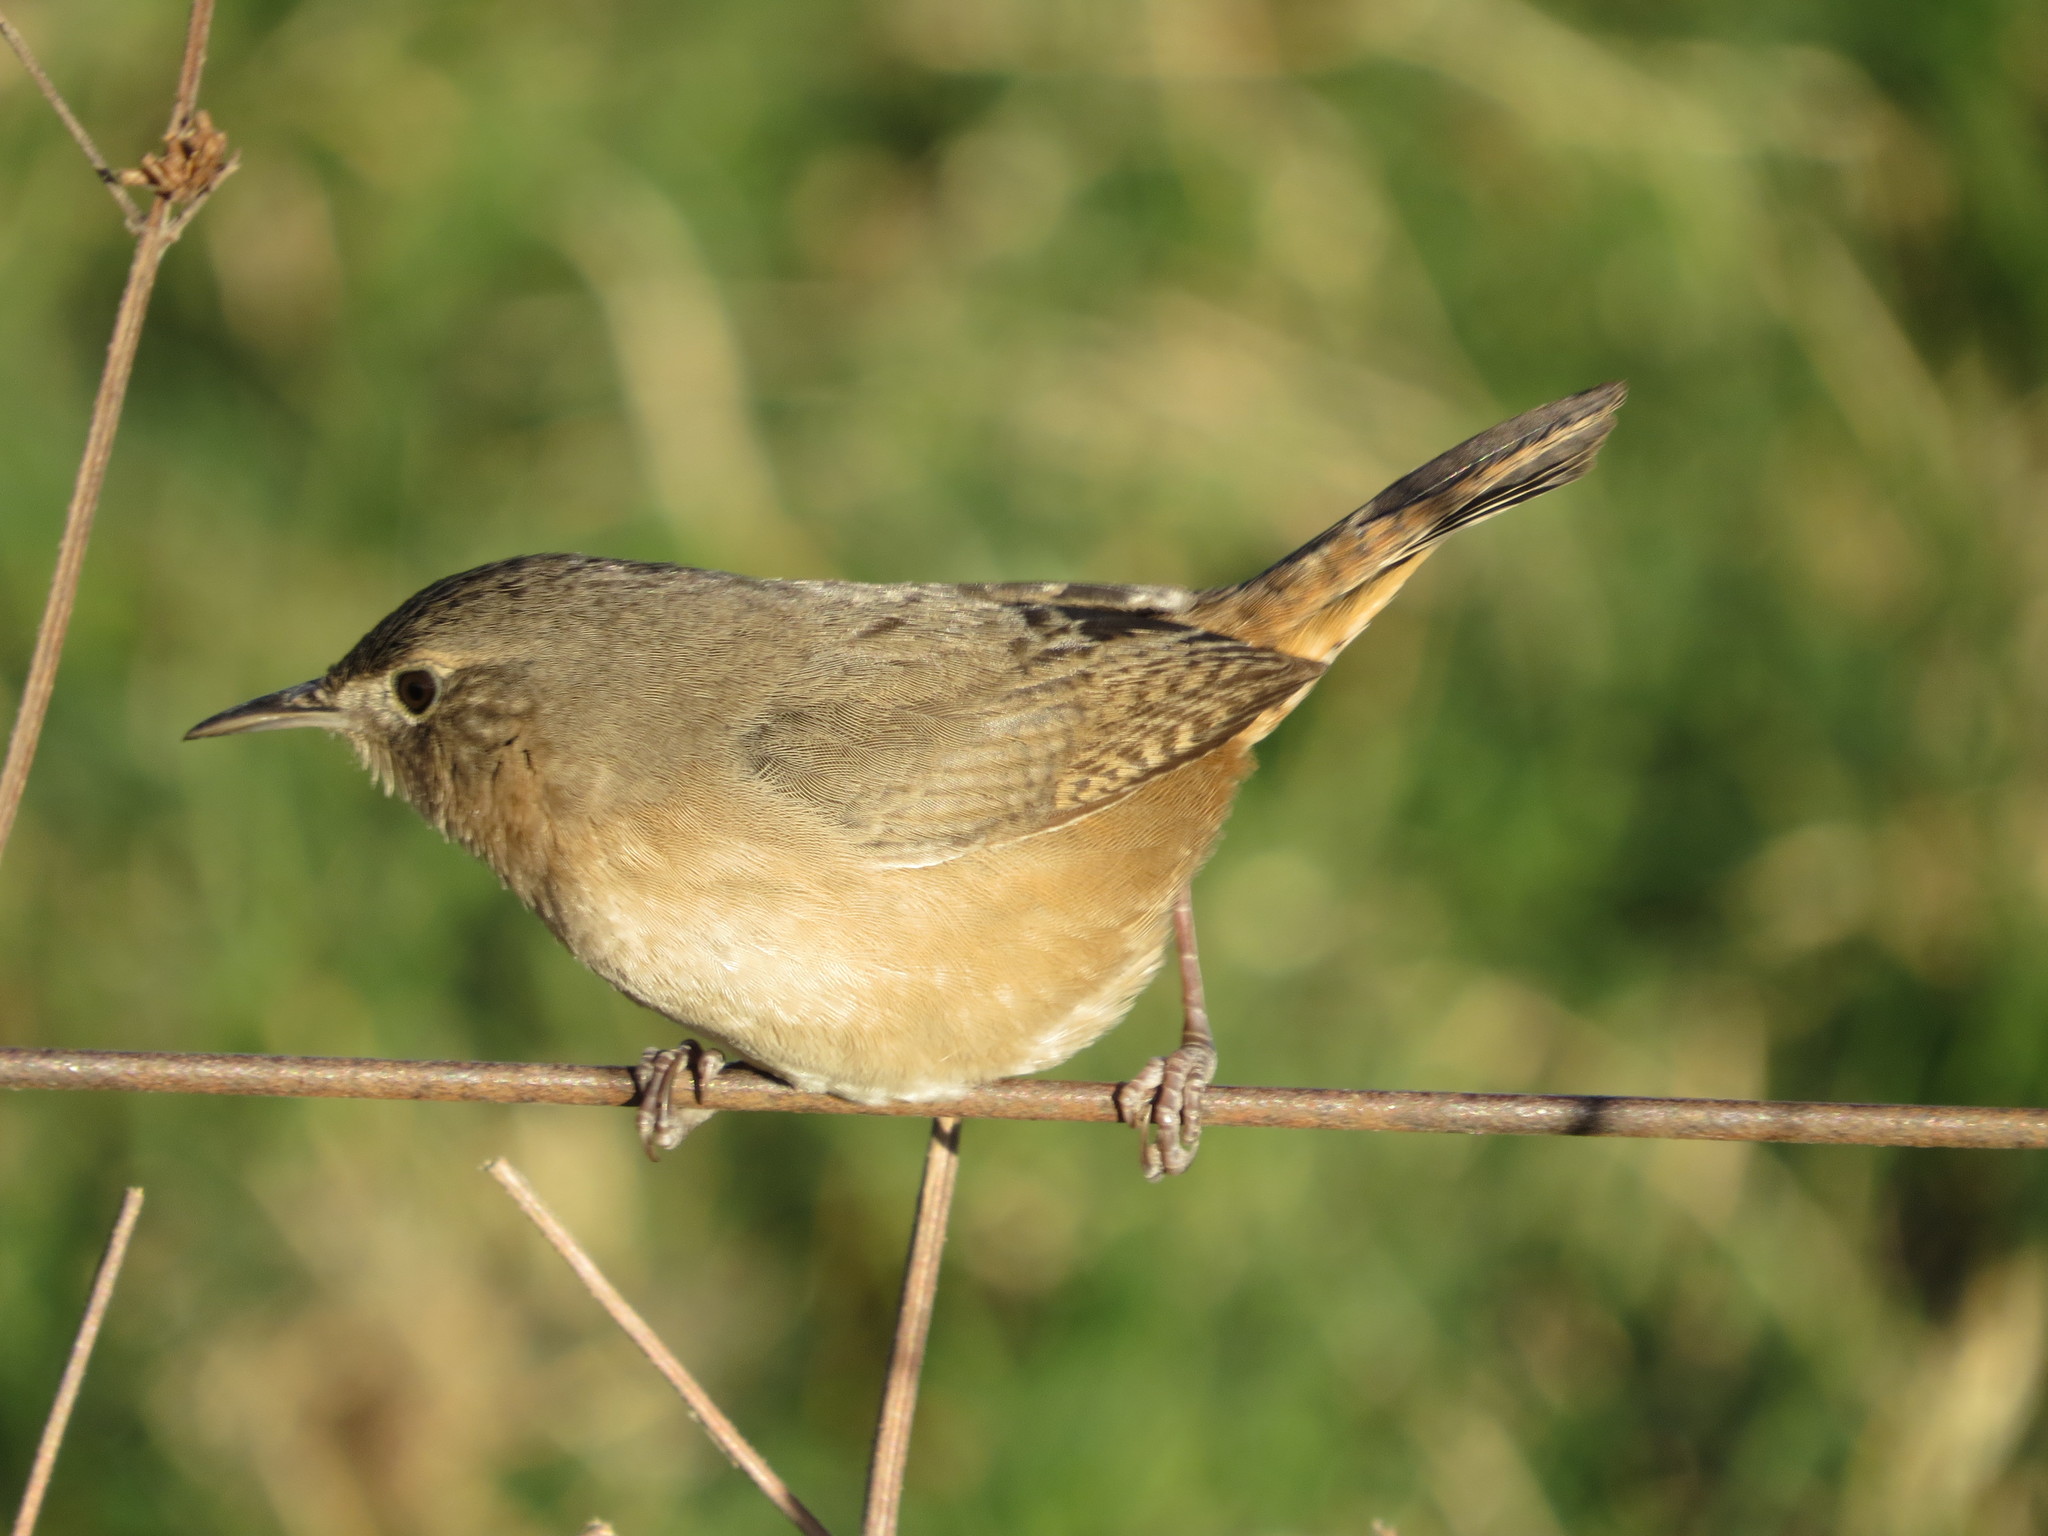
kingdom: Animalia
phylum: Chordata
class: Aves
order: Passeriformes
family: Troglodytidae
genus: Troglodytes
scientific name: Troglodytes aedon
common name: House wren
